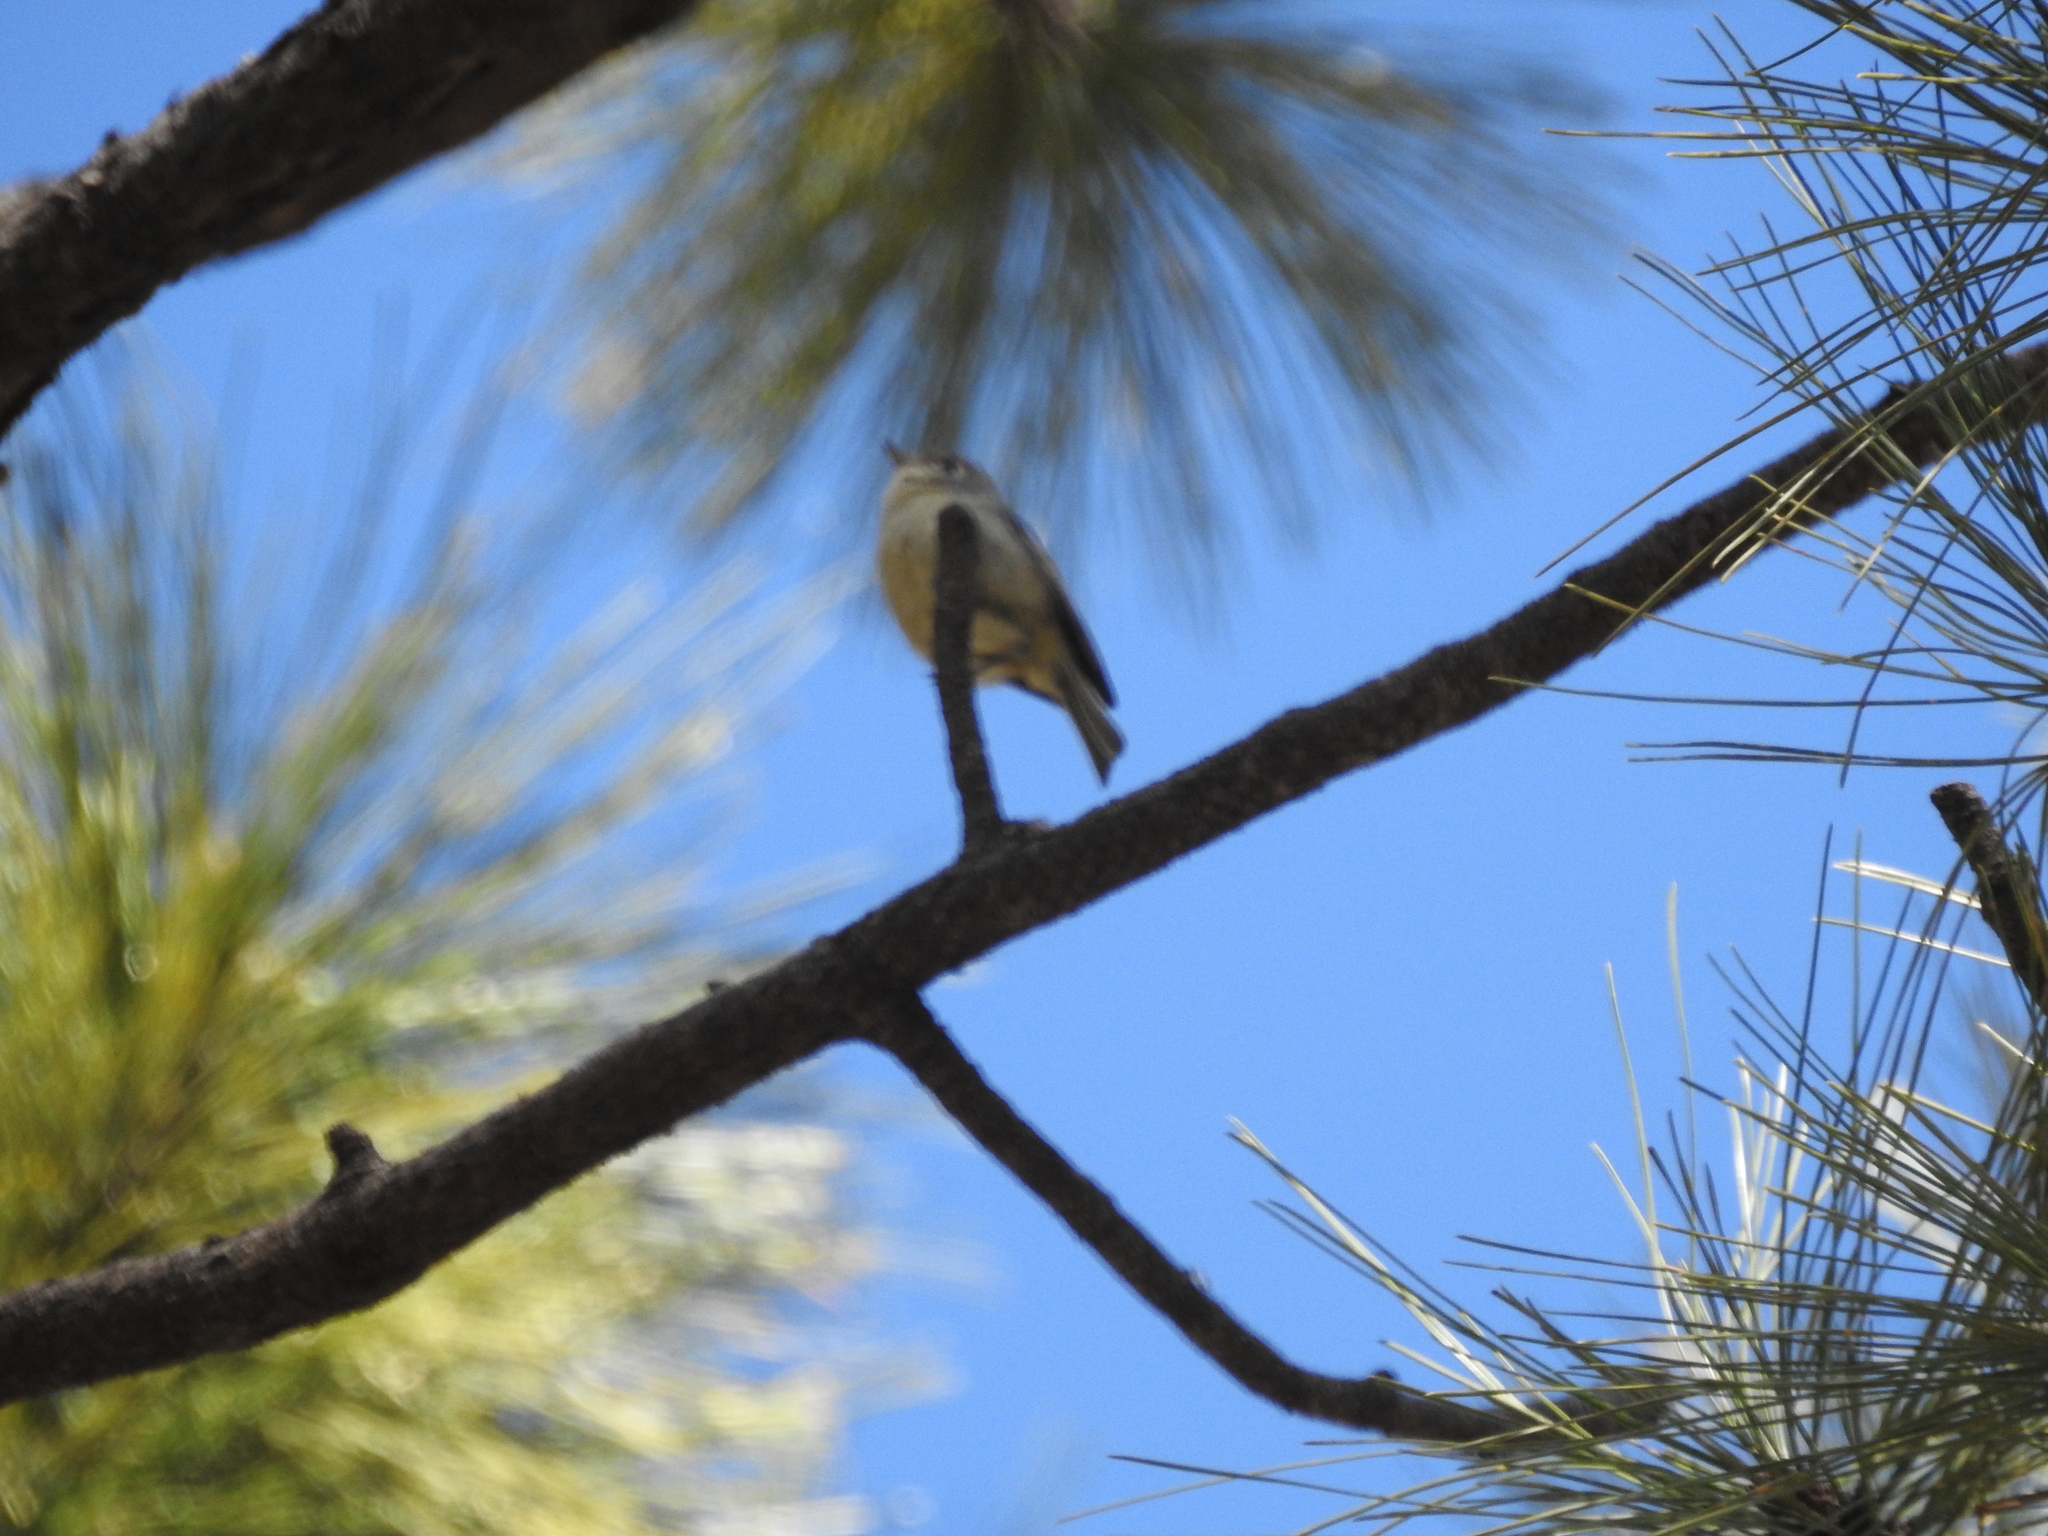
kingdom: Animalia
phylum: Chordata
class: Aves
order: Passeriformes
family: Regulidae
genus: Regulus
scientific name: Regulus calendula
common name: Ruby-crowned kinglet
